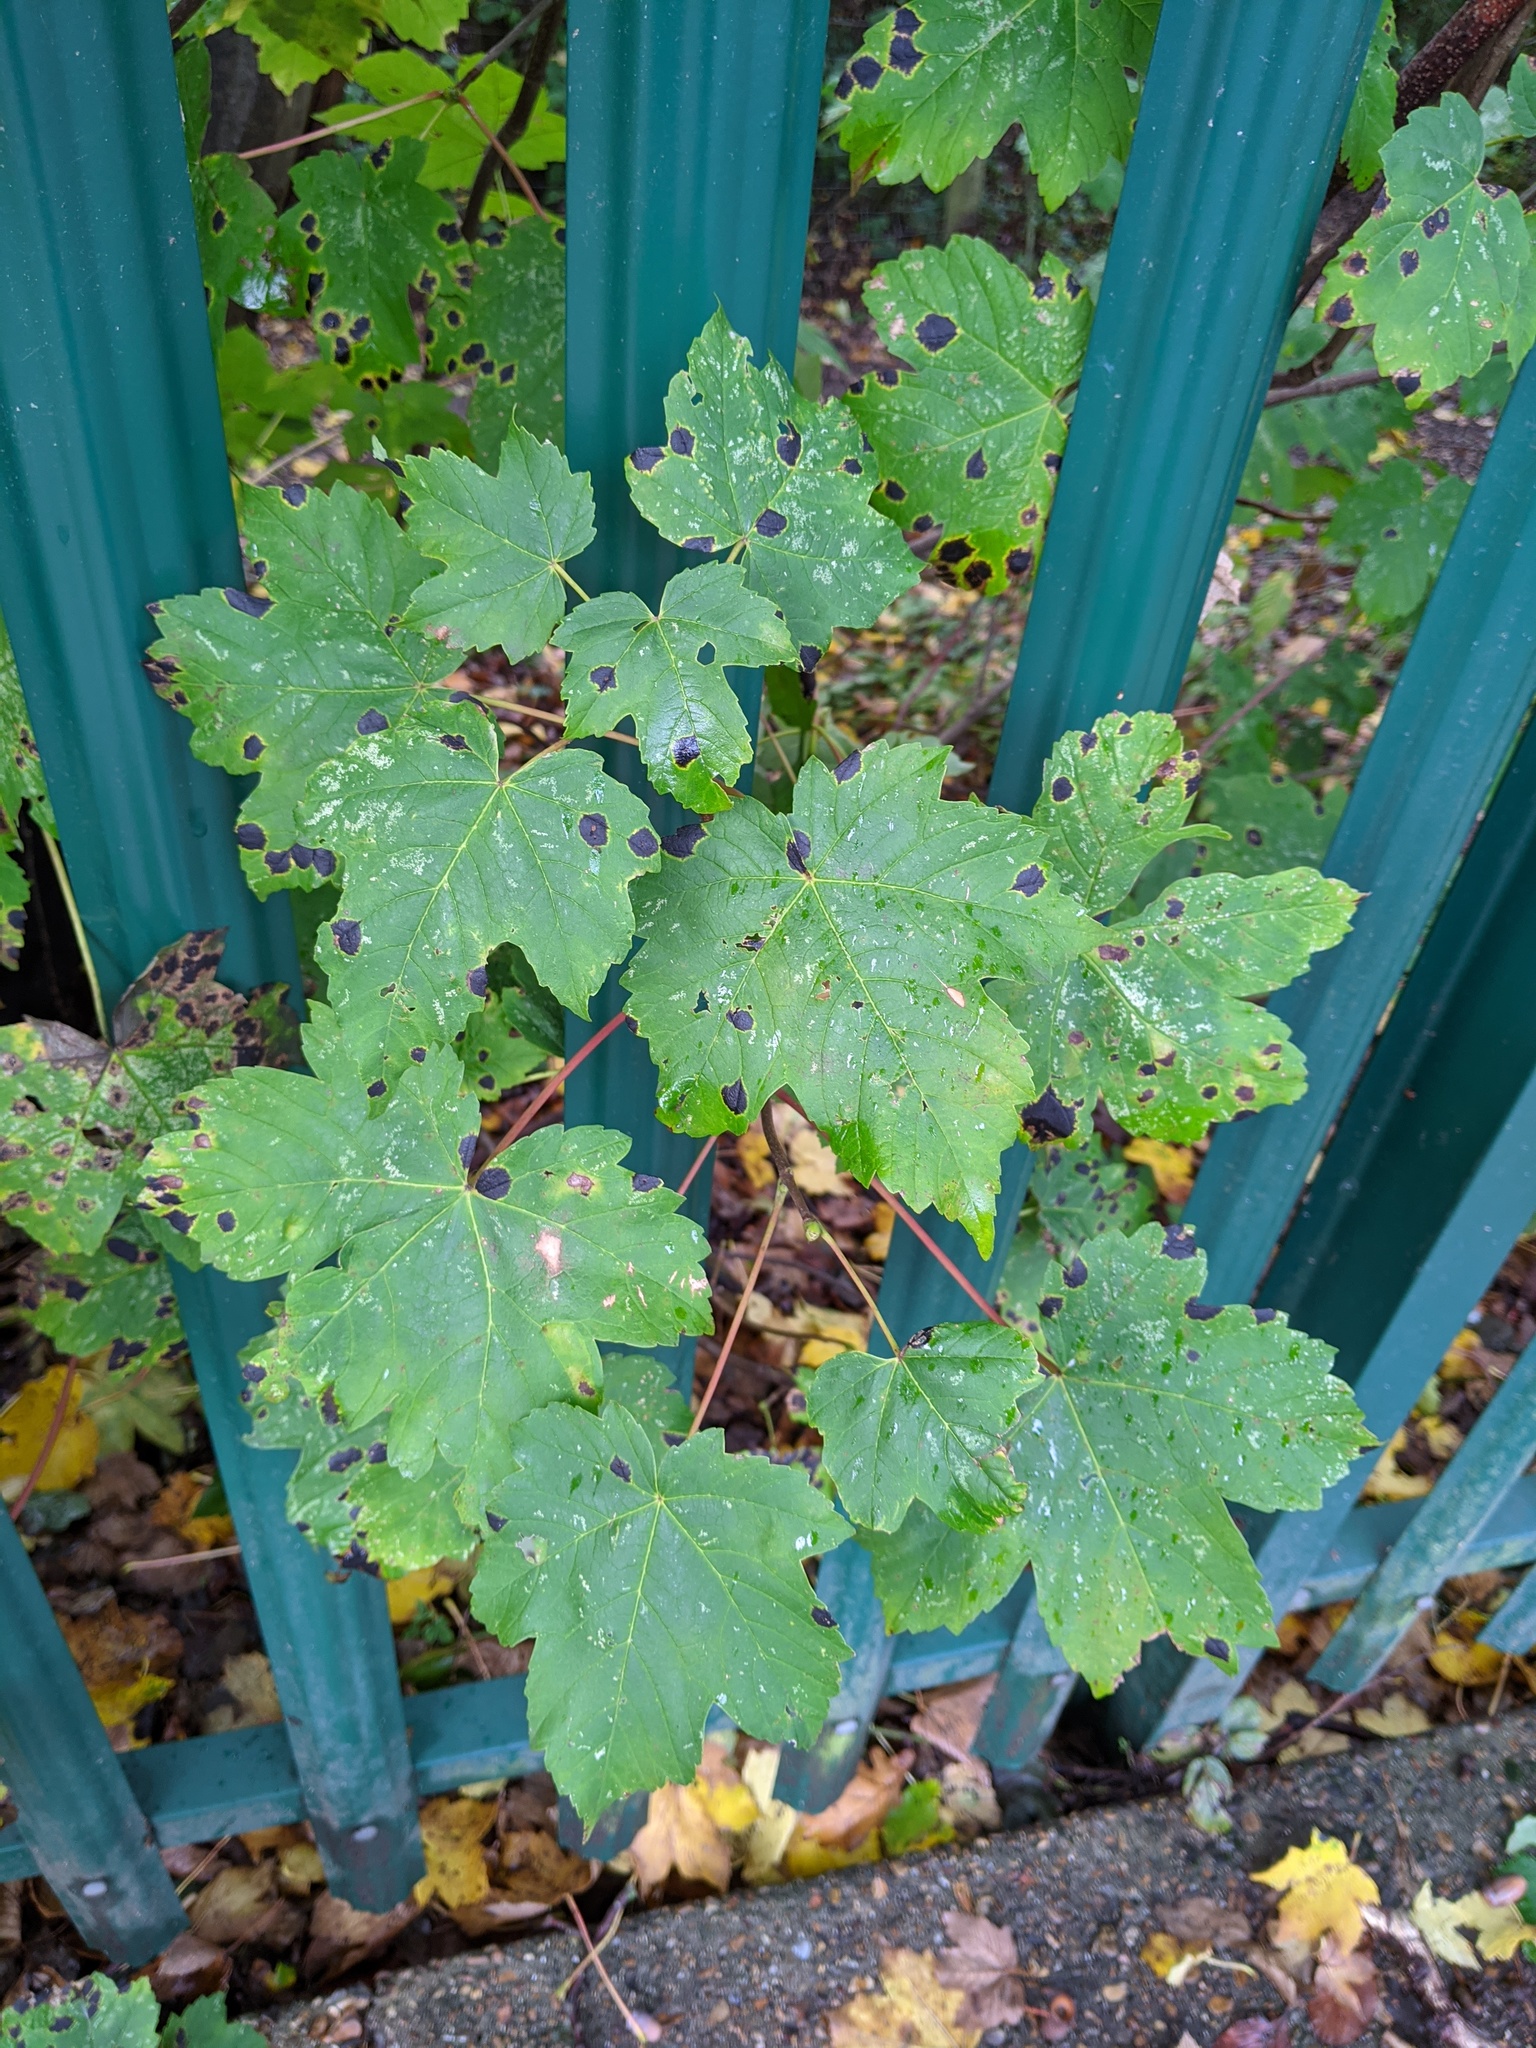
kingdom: Plantae
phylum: Tracheophyta
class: Magnoliopsida
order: Sapindales
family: Sapindaceae
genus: Acer
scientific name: Acer pseudoplatanus
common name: Sycamore
